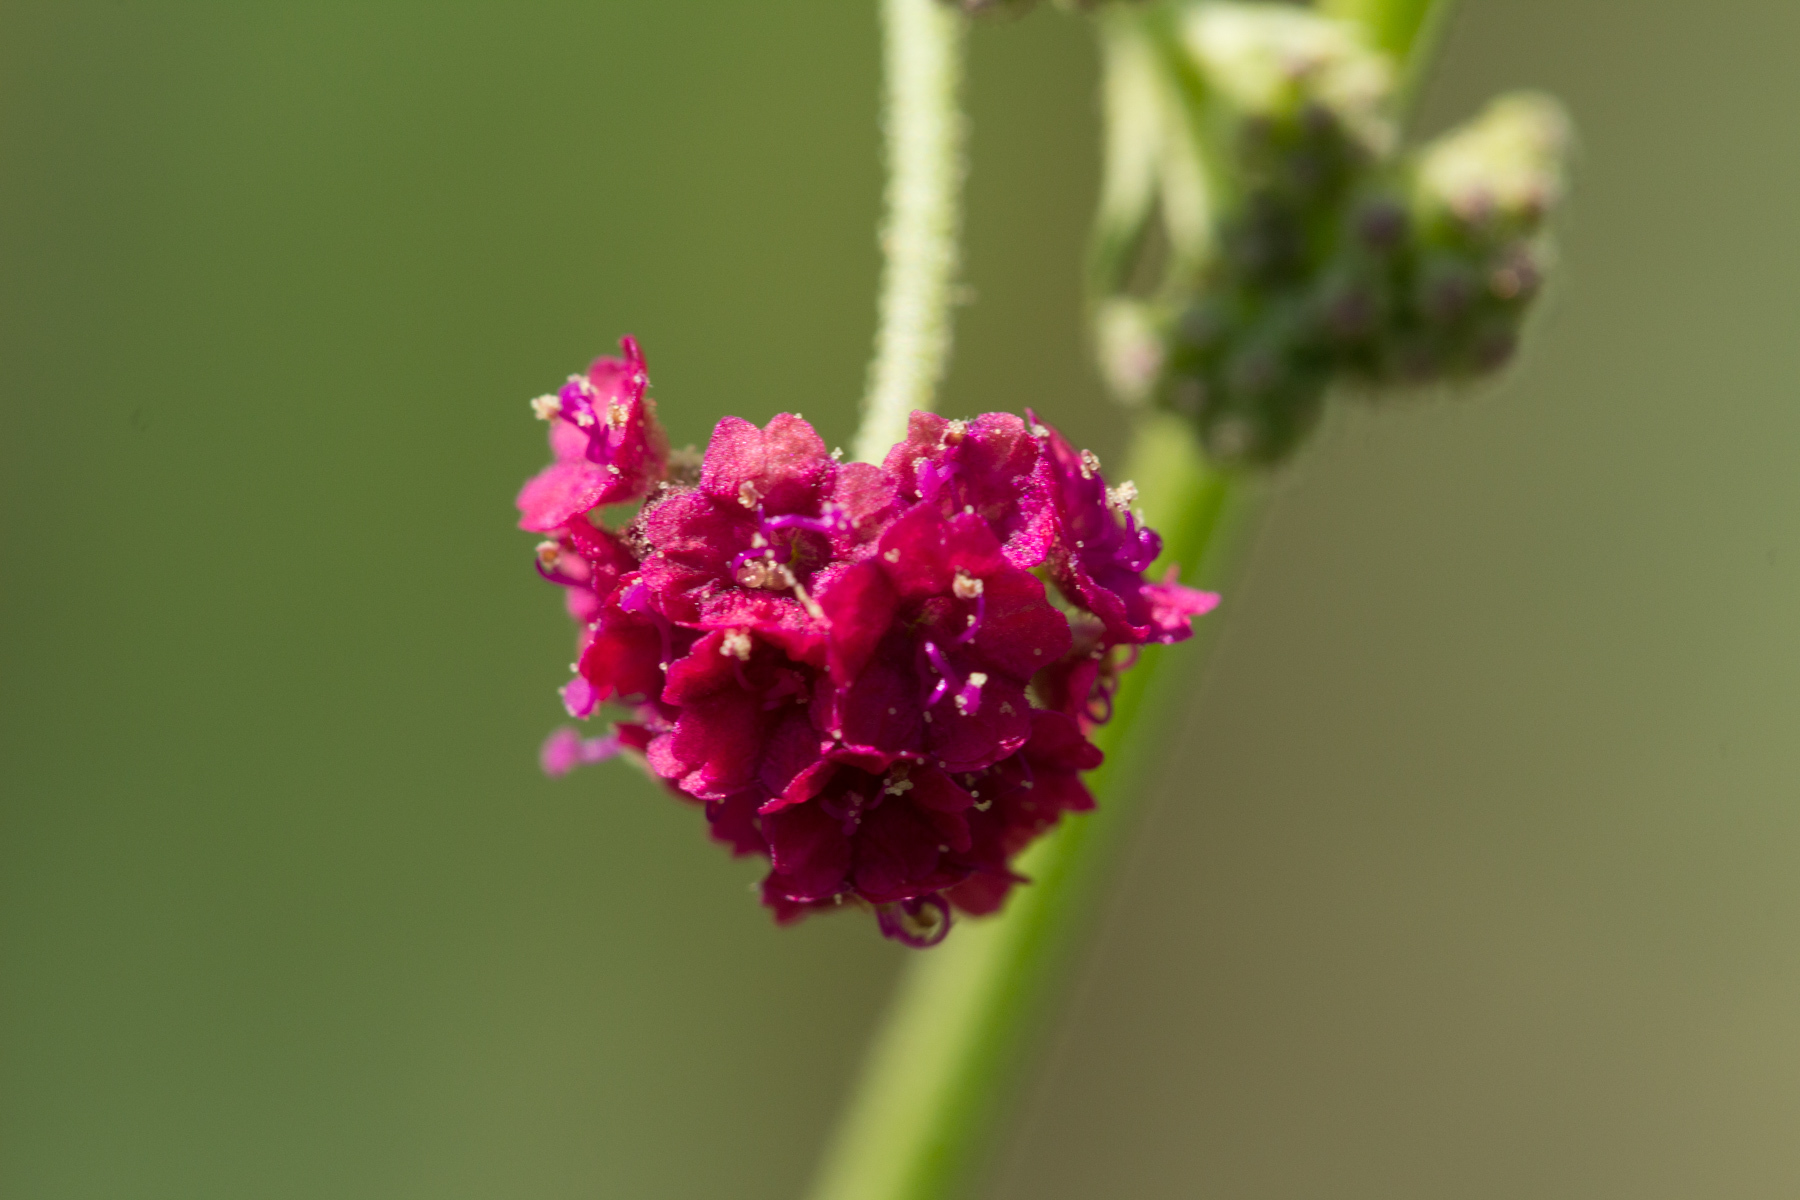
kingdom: Plantae
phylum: Tracheophyta
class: Magnoliopsida
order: Caryophyllales
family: Nyctaginaceae
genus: Boerhavia
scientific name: Boerhavia coccinea
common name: Scarlet spiderling
